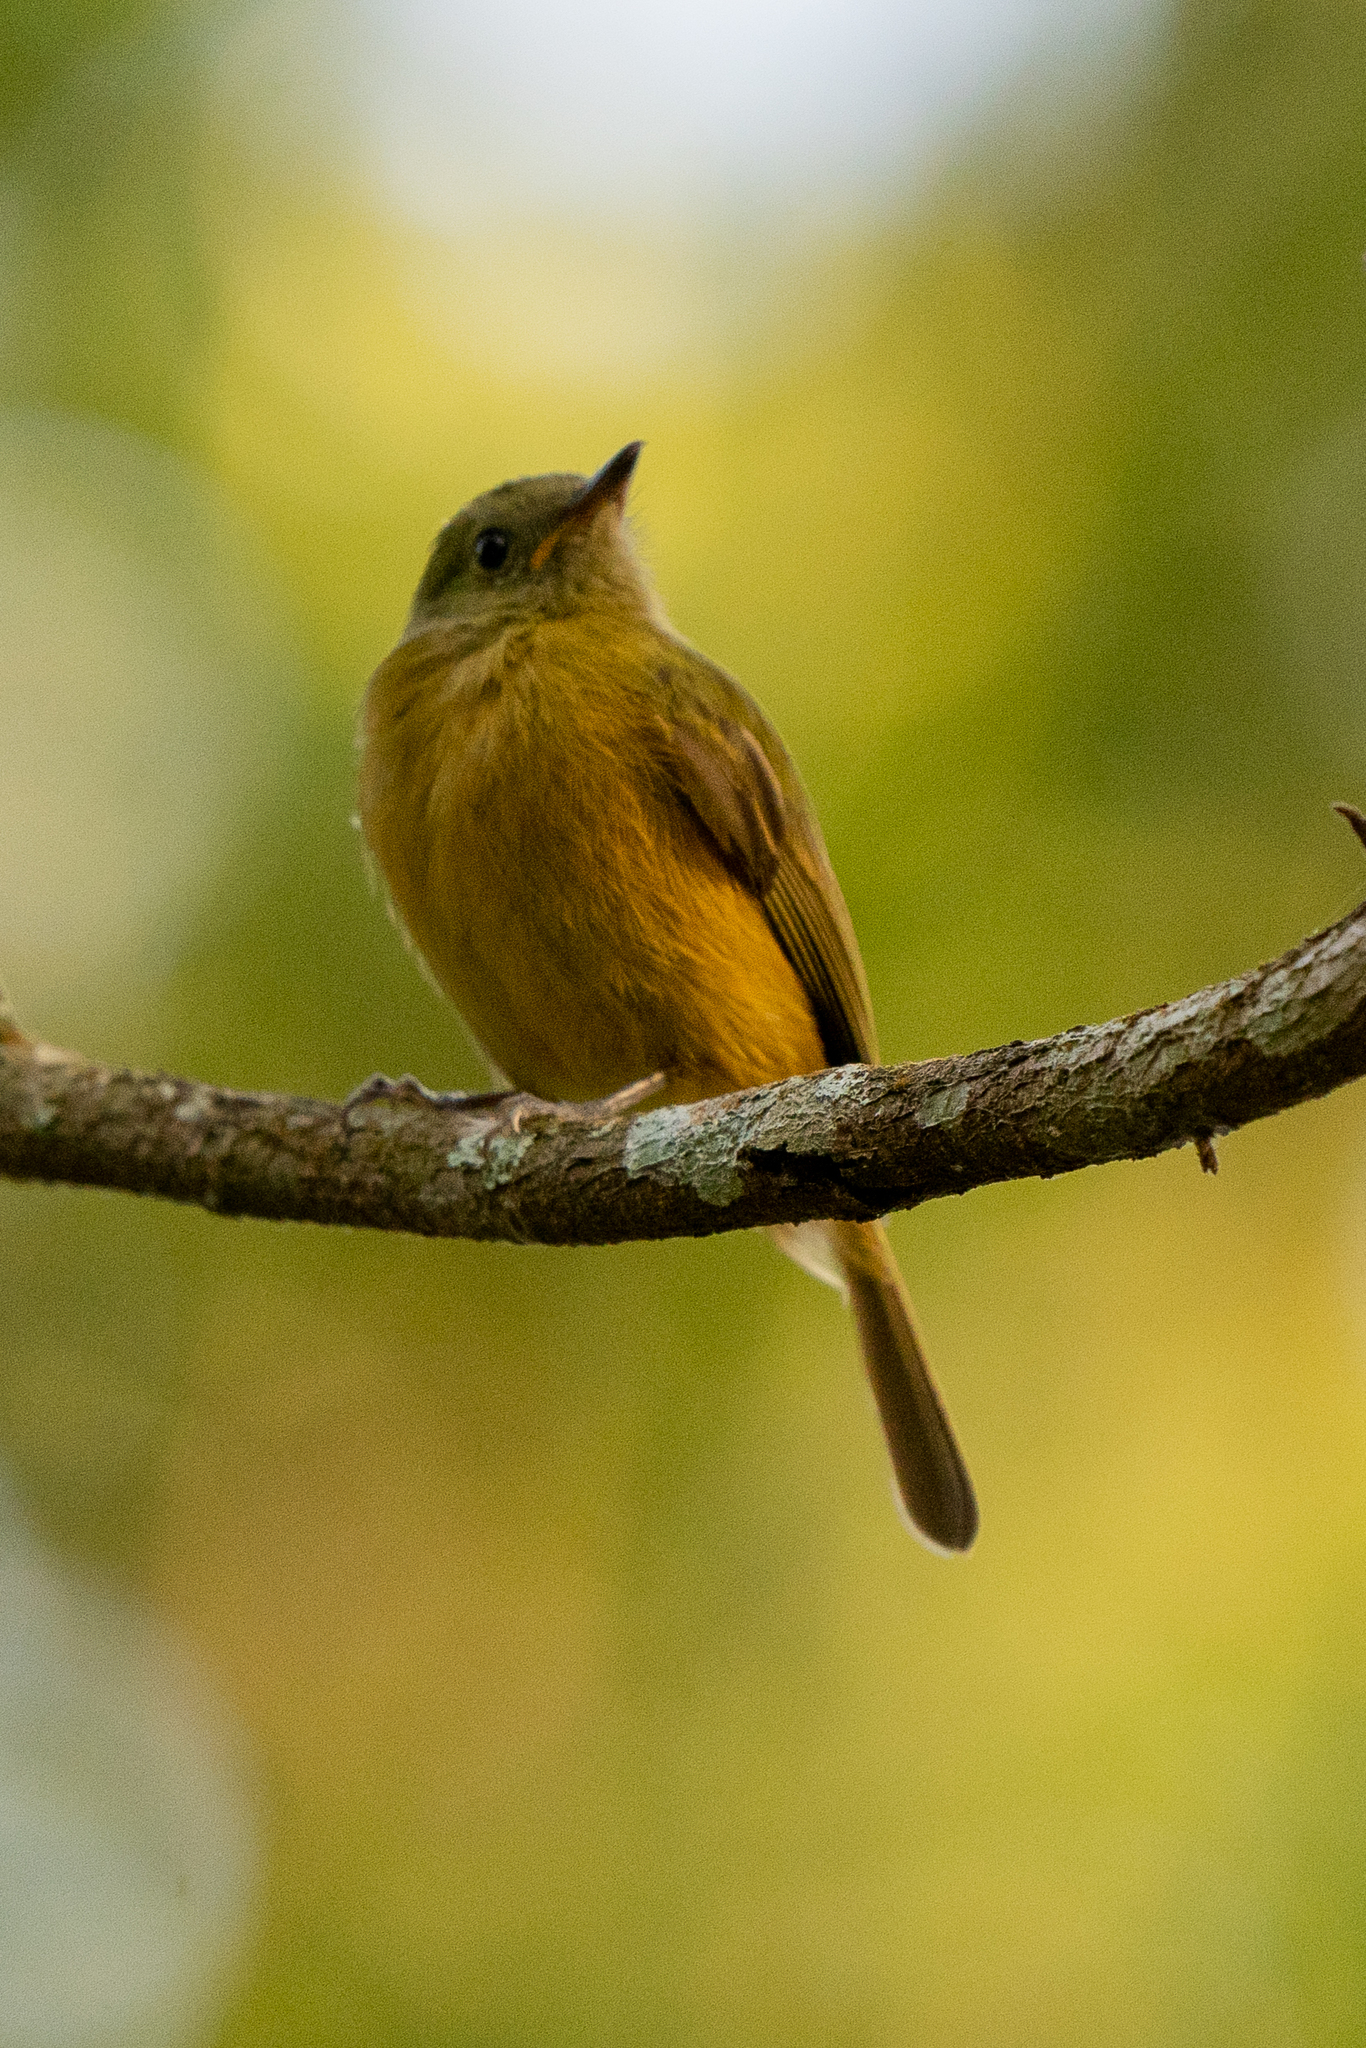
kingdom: Animalia
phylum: Chordata
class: Aves
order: Passeriformes
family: Tyrannidae
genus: Mionectes
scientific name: Mionectes oleagineus
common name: Ochre-bellied flycatcher
